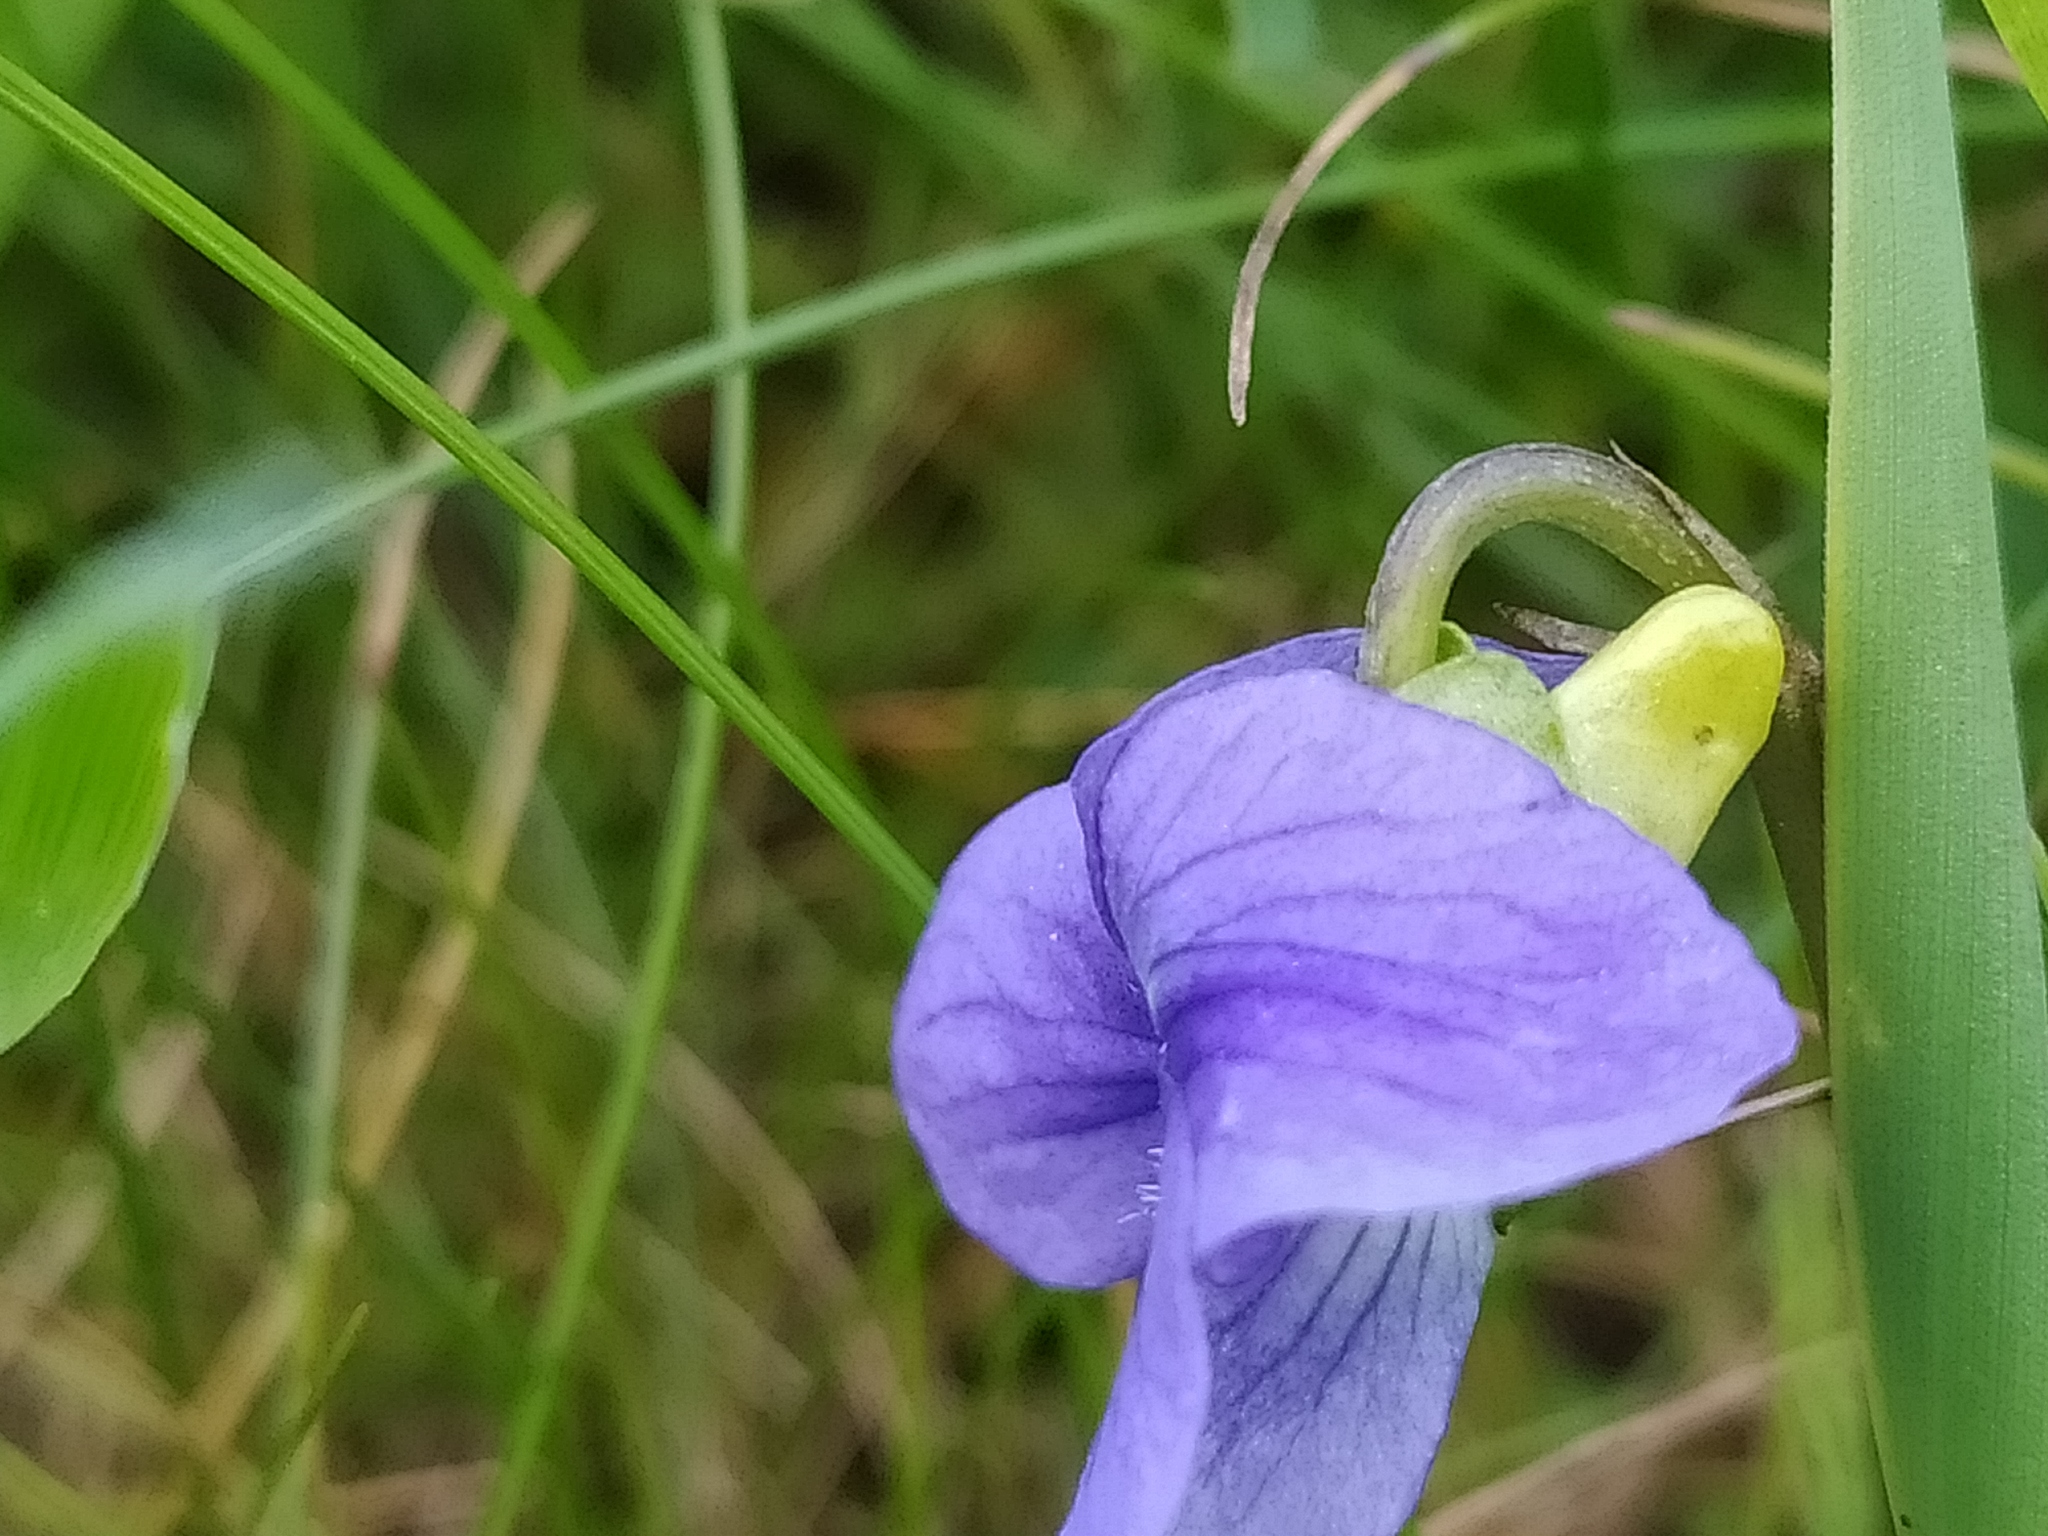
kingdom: Plantae
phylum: Tracheophyta
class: Magnoliopsida
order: Malpighiales
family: Violaceae
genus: Viola
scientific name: Viola canina
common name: Heath dog-violet
